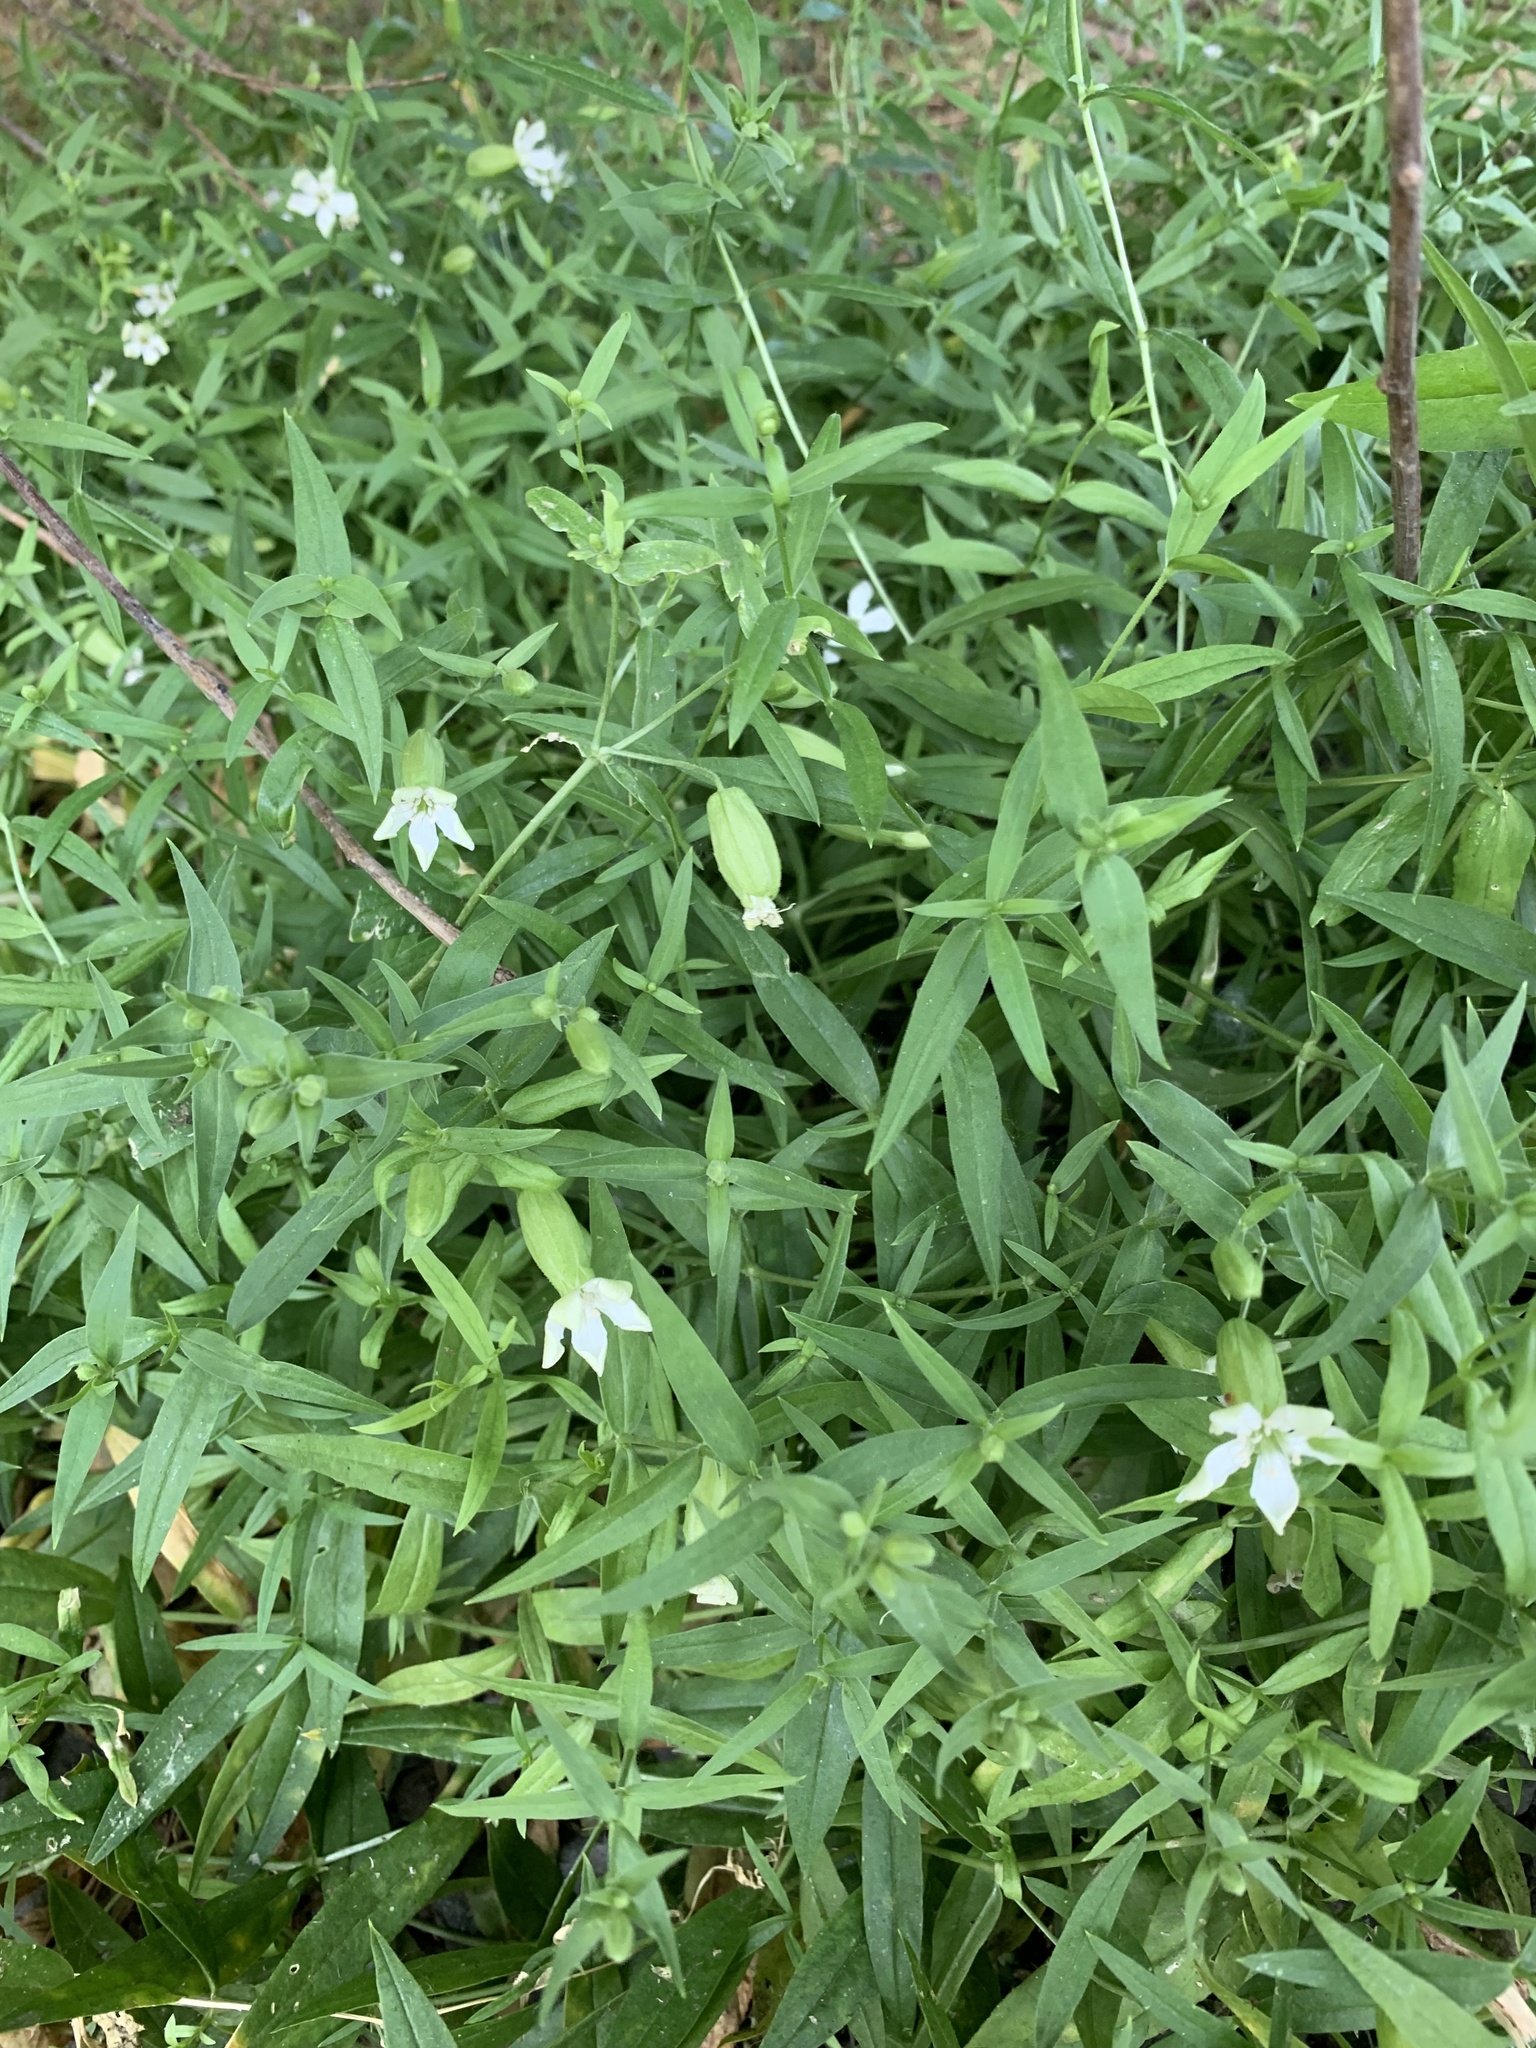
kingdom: Plantae
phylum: Tracheophyta
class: Magnoliopsida
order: Caryophyllales
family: Caryophyllaceae
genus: Silene
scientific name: Silene procumbens
